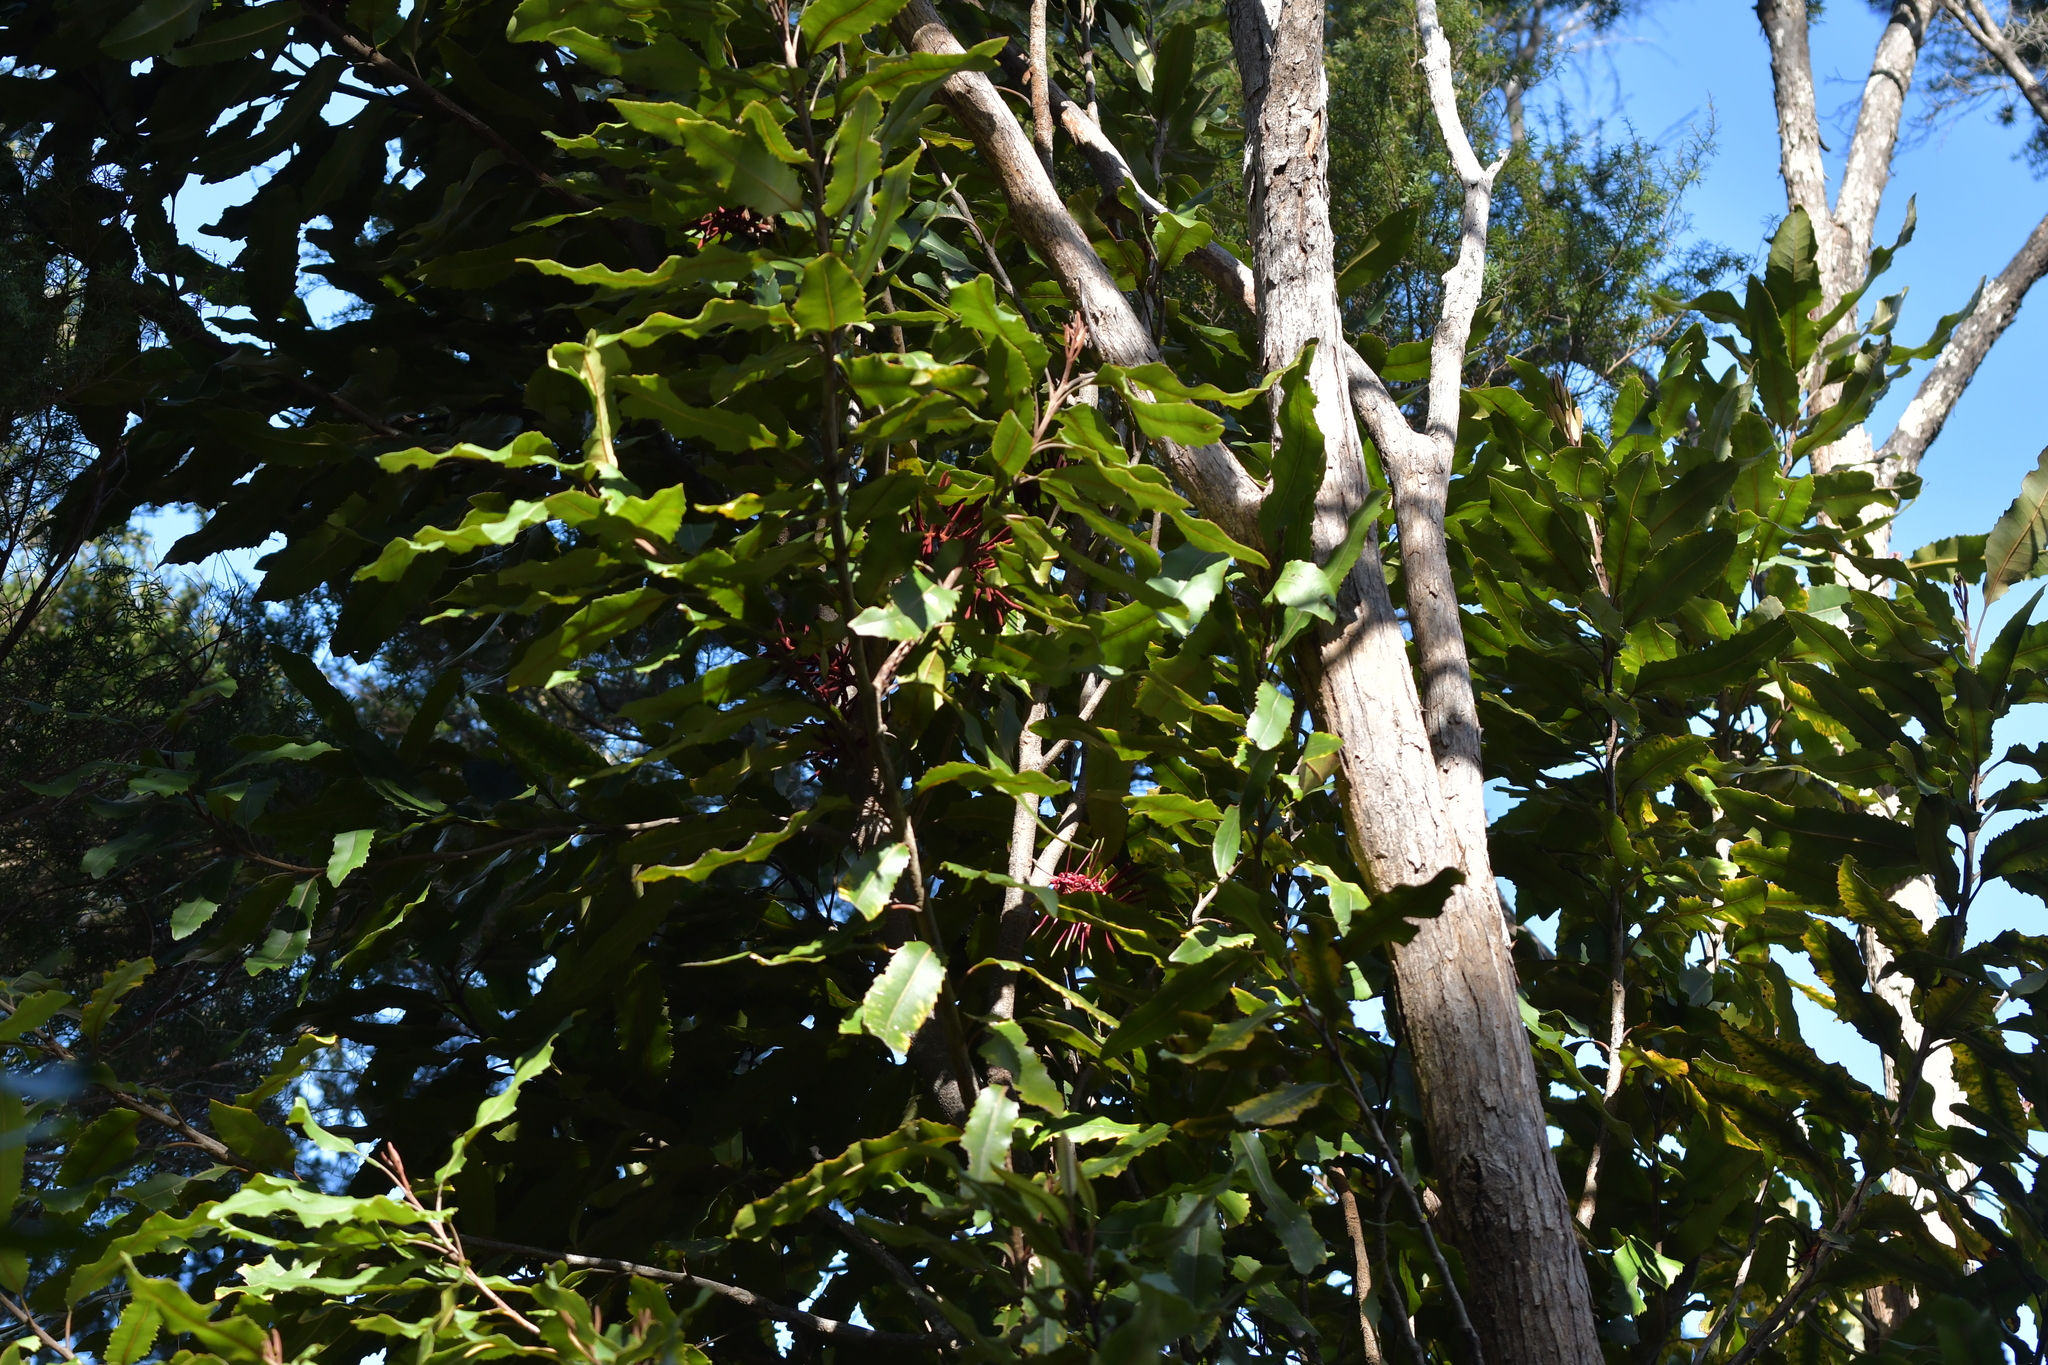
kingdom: Plantae
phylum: Tracheophyta
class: Magnoliopsida
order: Proteales
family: Proteaceae
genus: Knightia
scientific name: Knightia excelsa
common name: New zealand-honeysuckle
